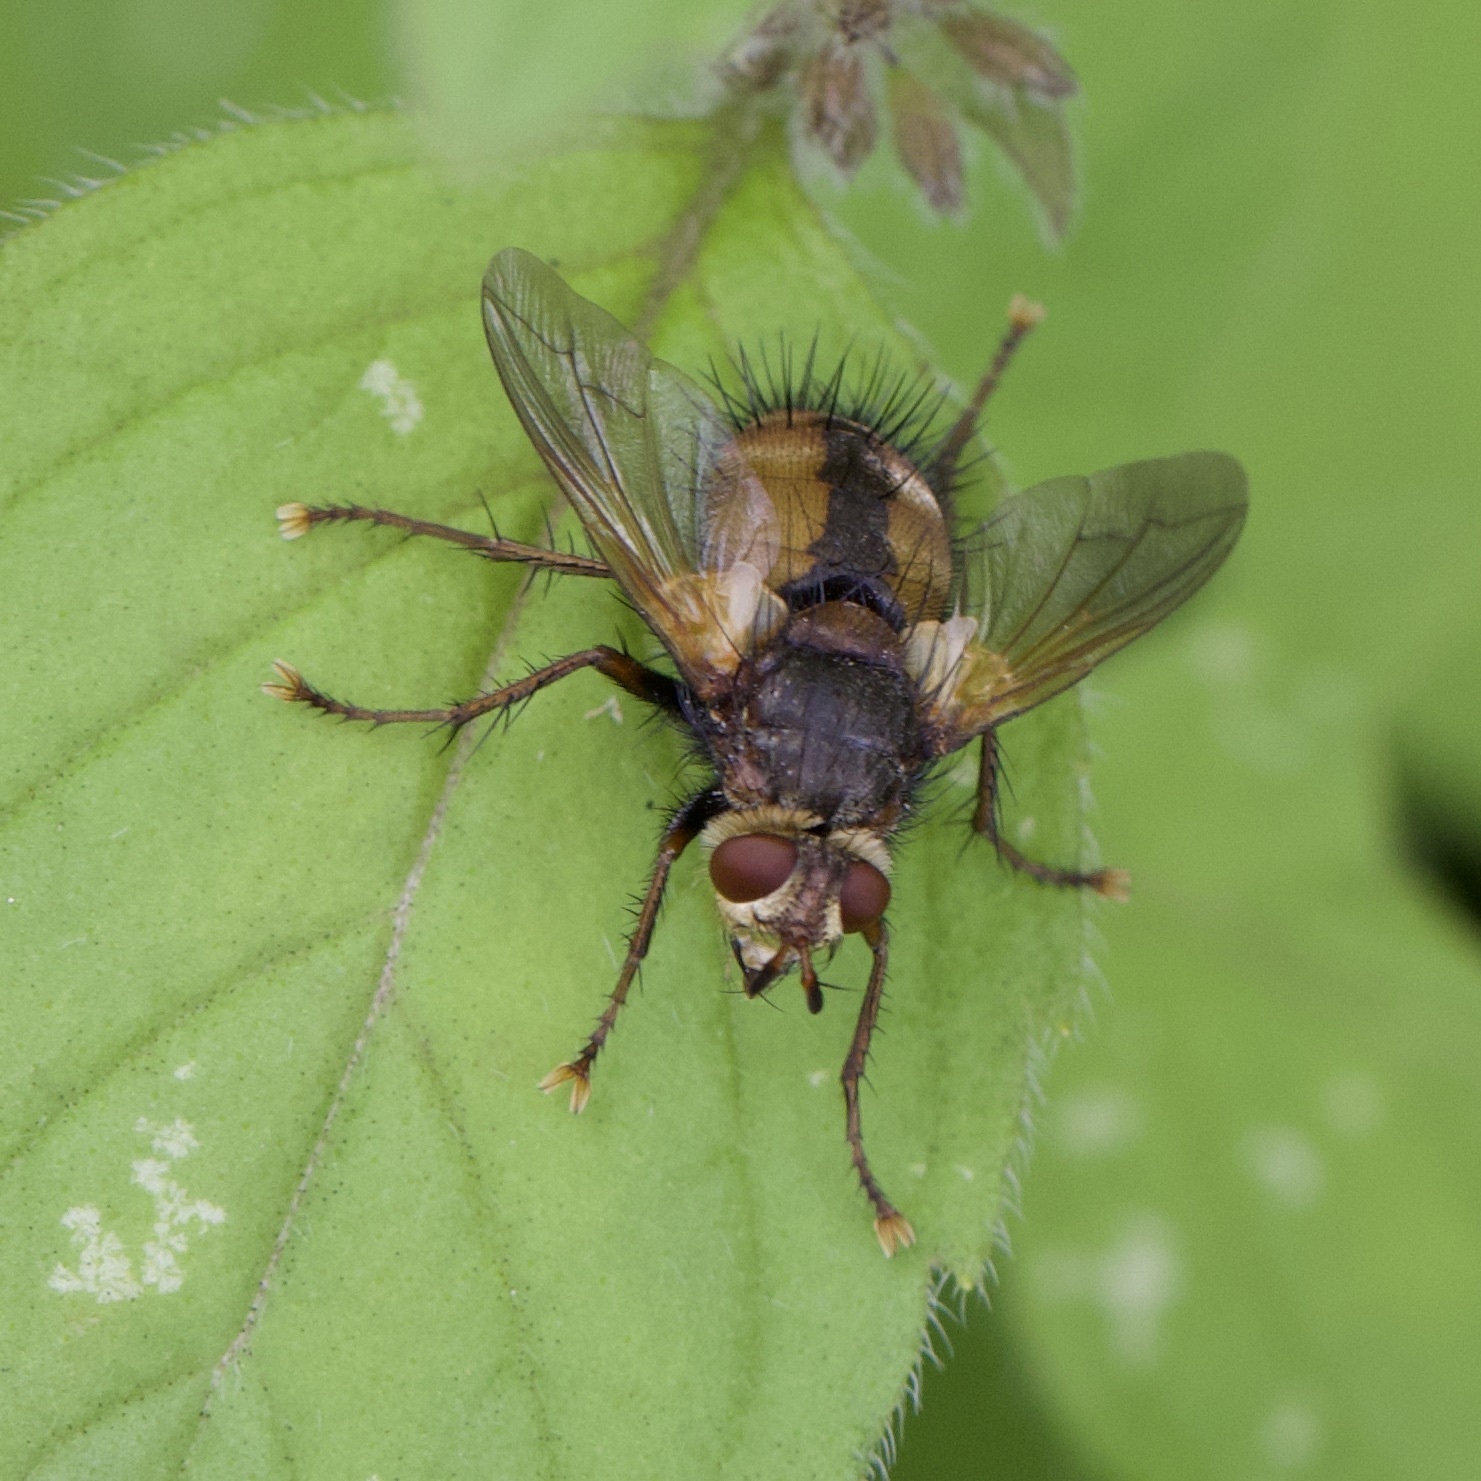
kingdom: Animalia
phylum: Arthropoda
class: Insecta
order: Diptera
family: Tachinidae
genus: Tachina
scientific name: Tachina fera
